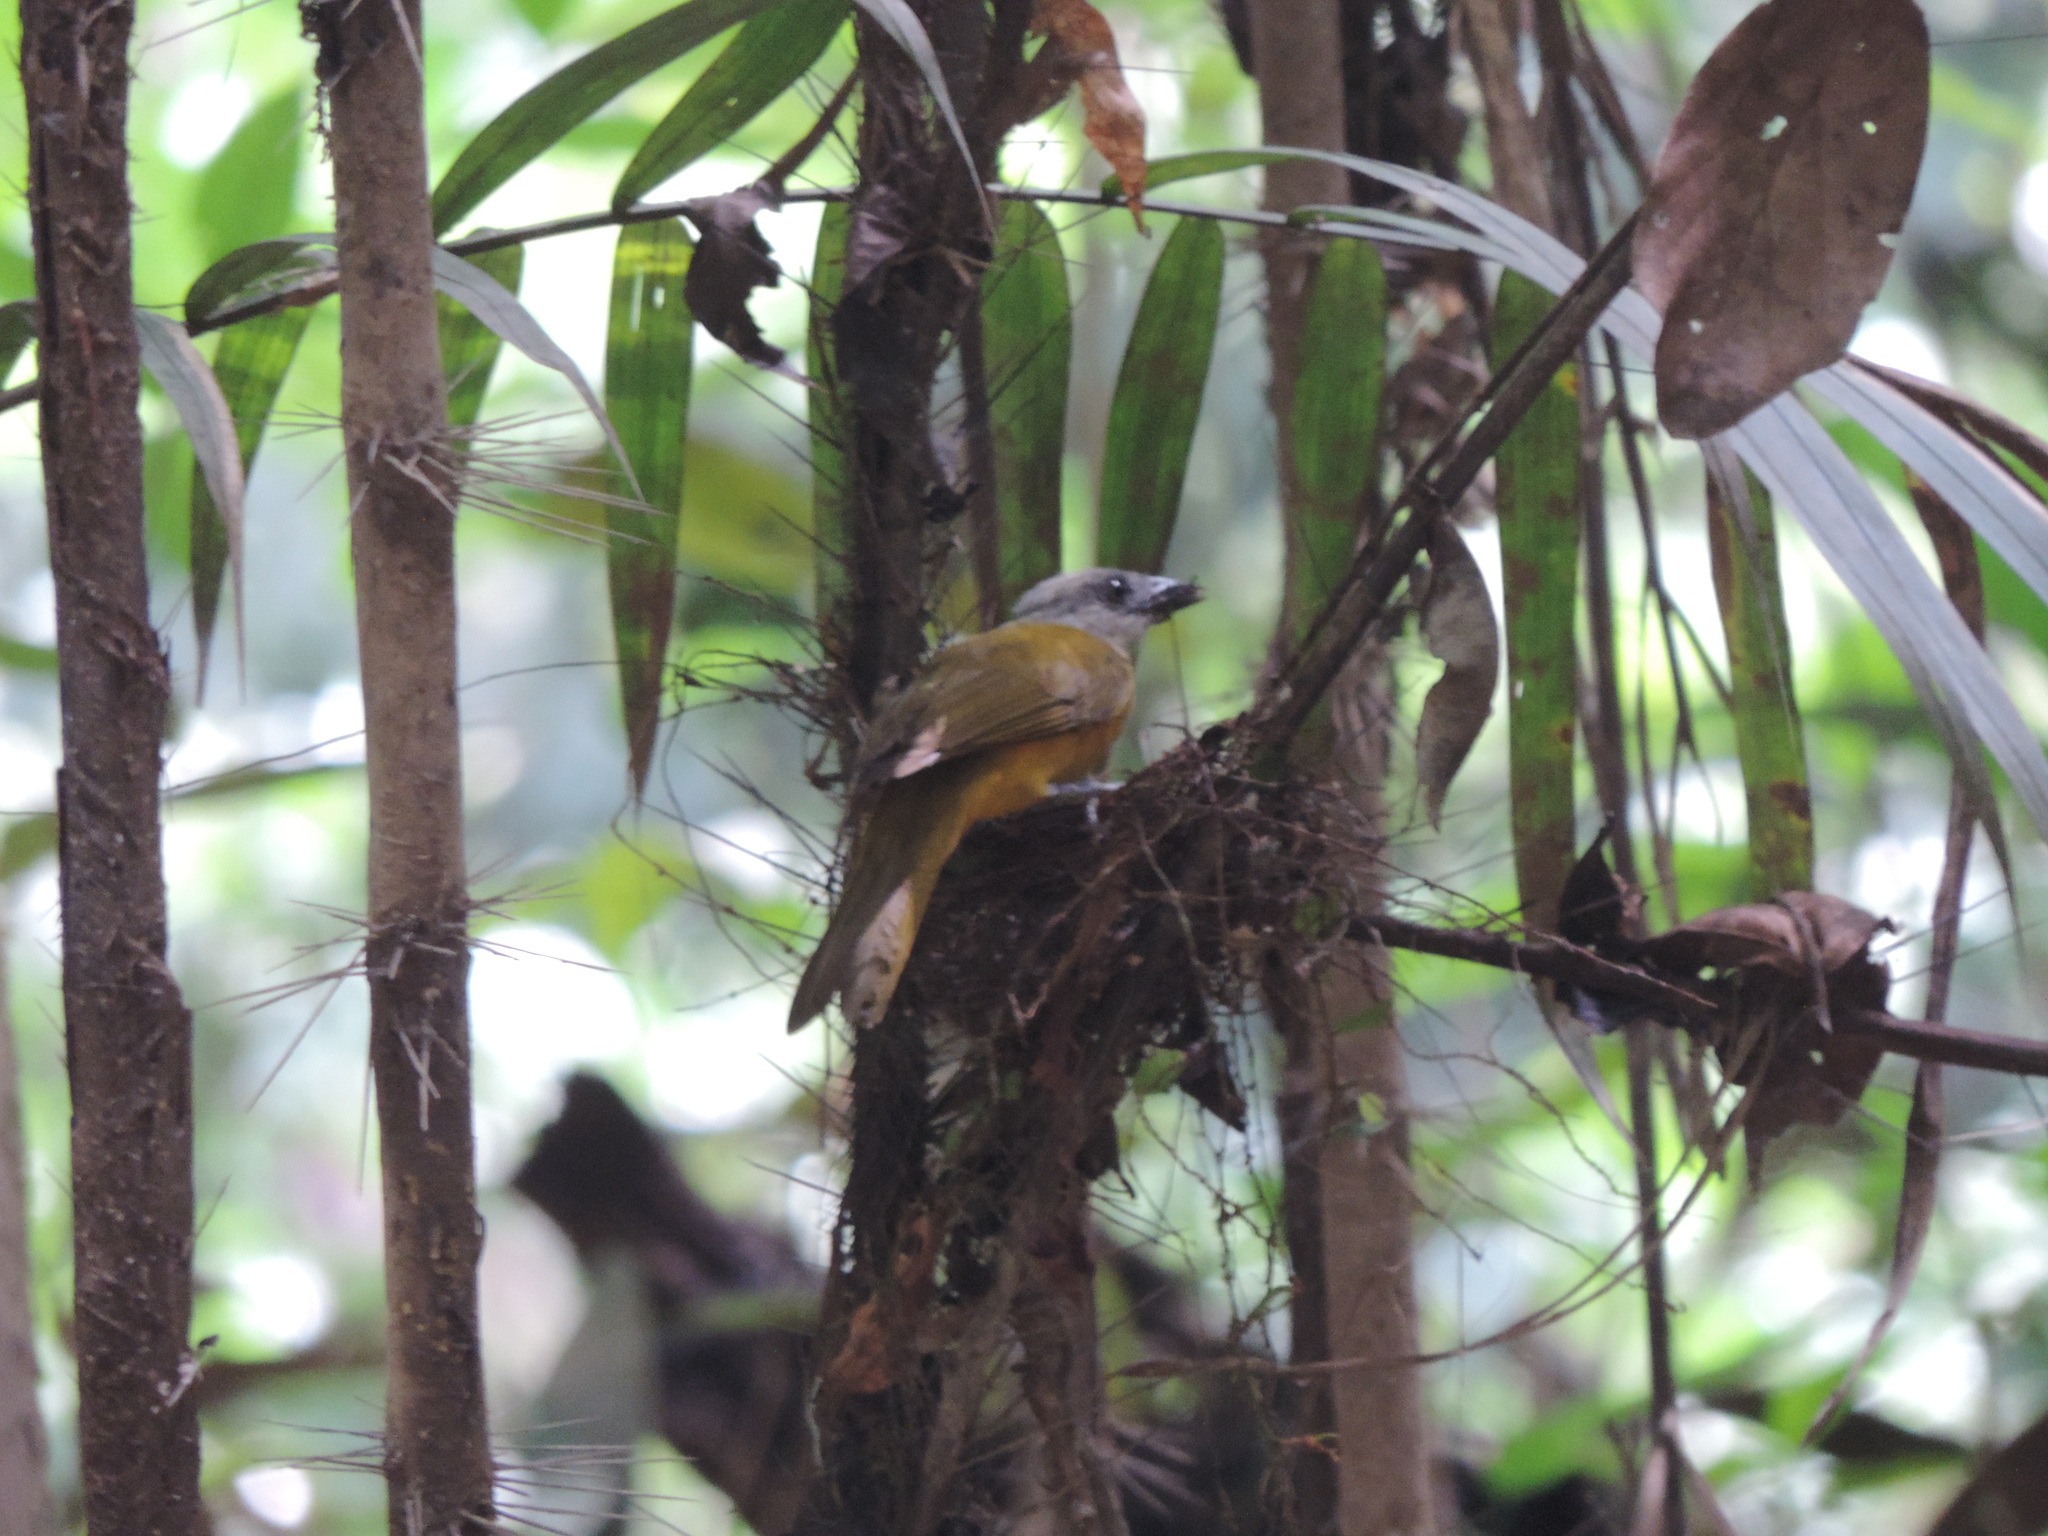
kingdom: Animalia
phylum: Chordata
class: Aves
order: Passeriformes
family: Thraupidae
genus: Eucometis
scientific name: Eucometis penicillata
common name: Grey-headed tanager
